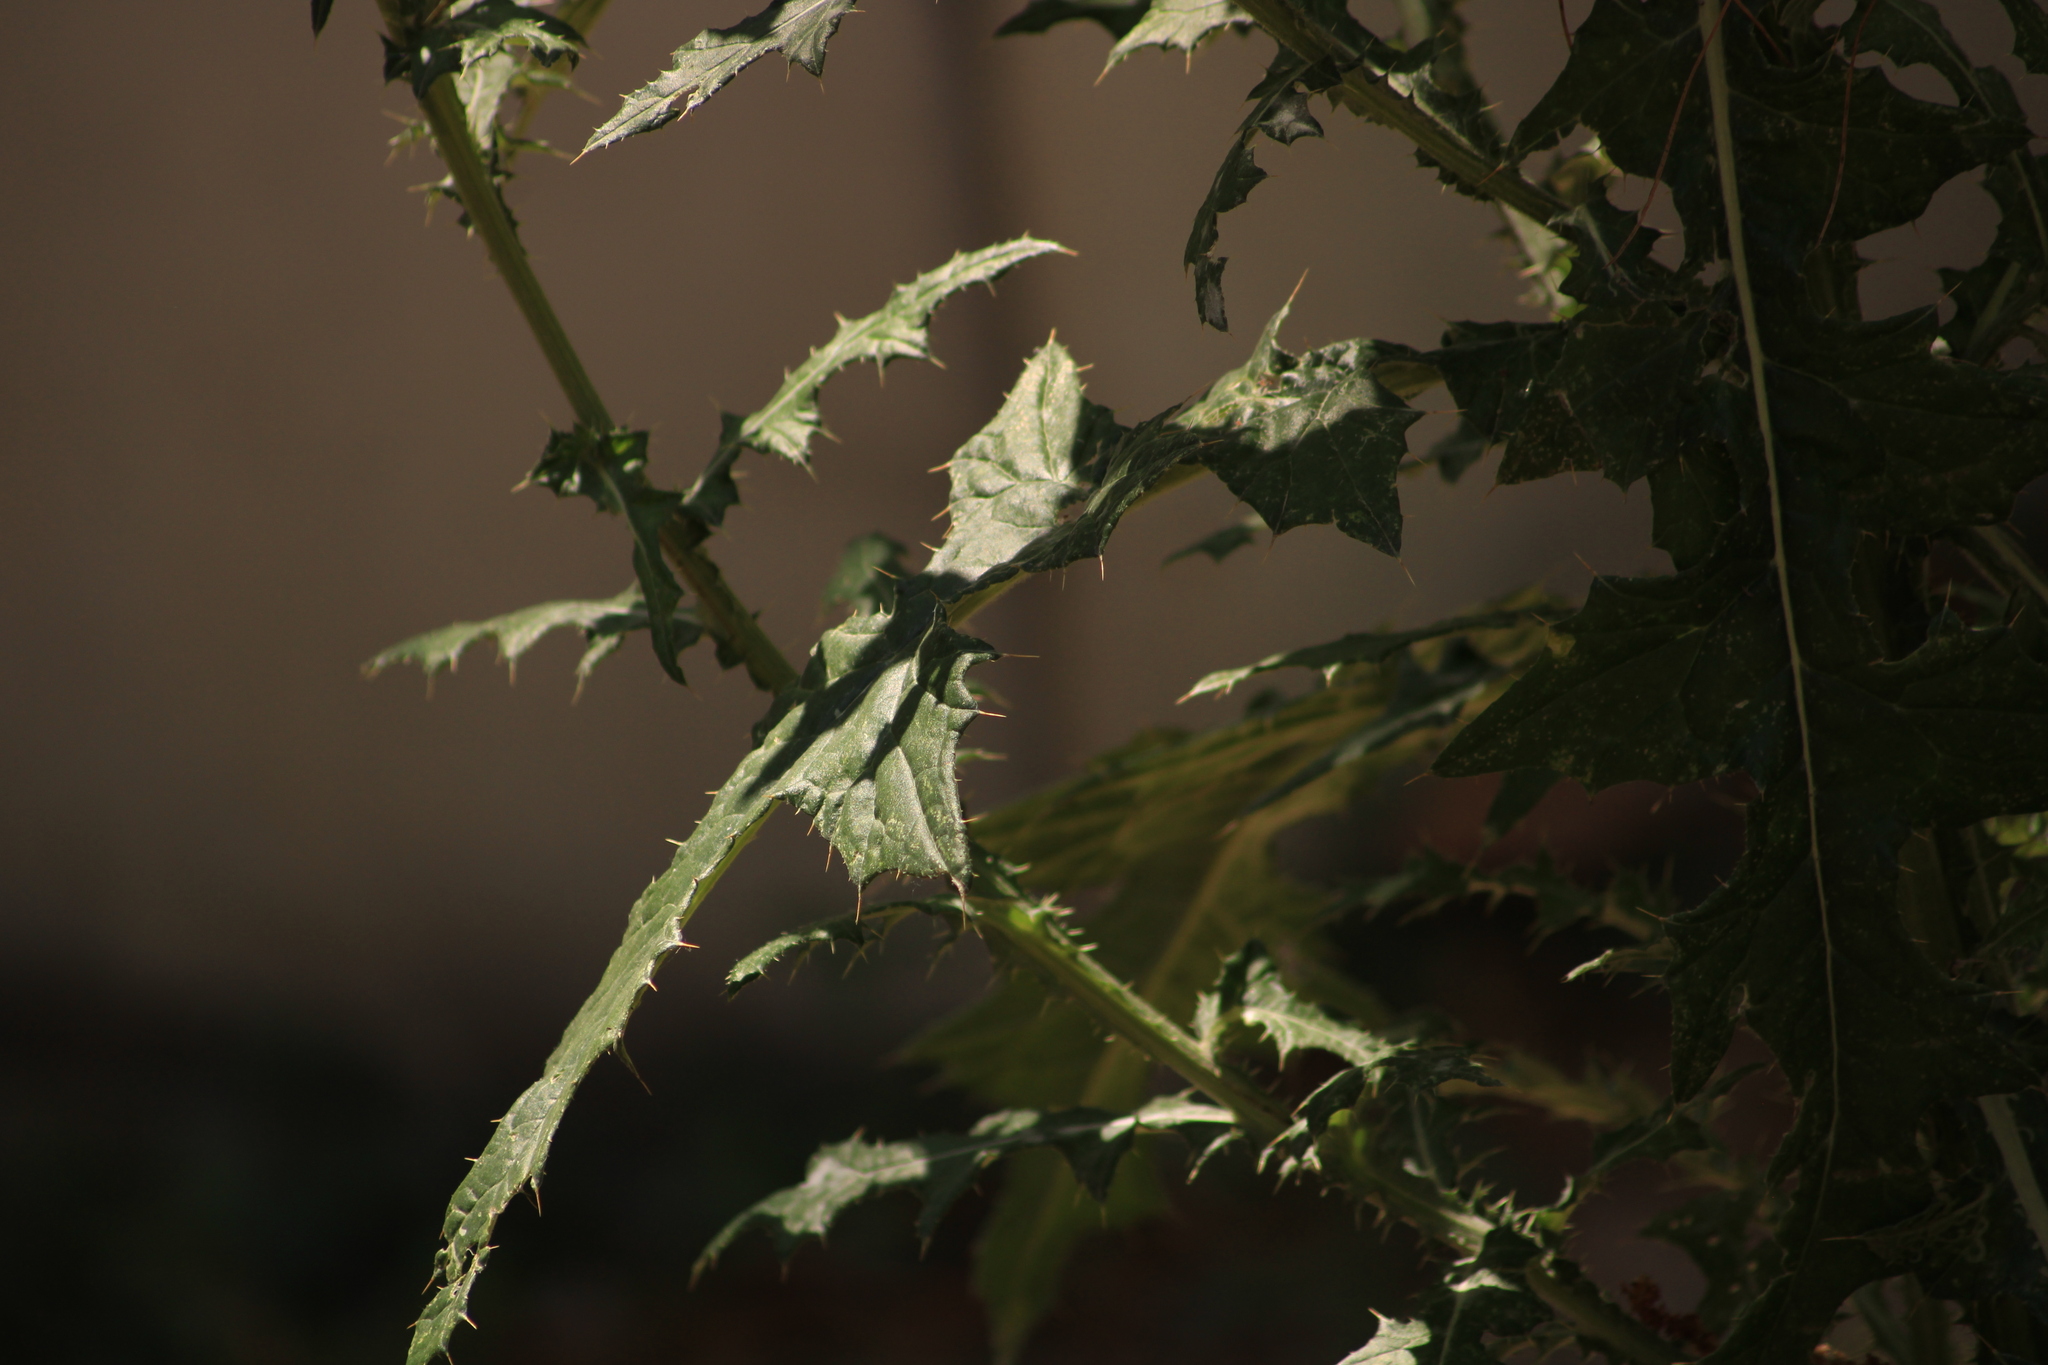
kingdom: Plantae
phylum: Tracheophyta
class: Magnoliopsida
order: Asterales
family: Asteraceae
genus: Cirsium
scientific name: Cirsium rhaphilepis
